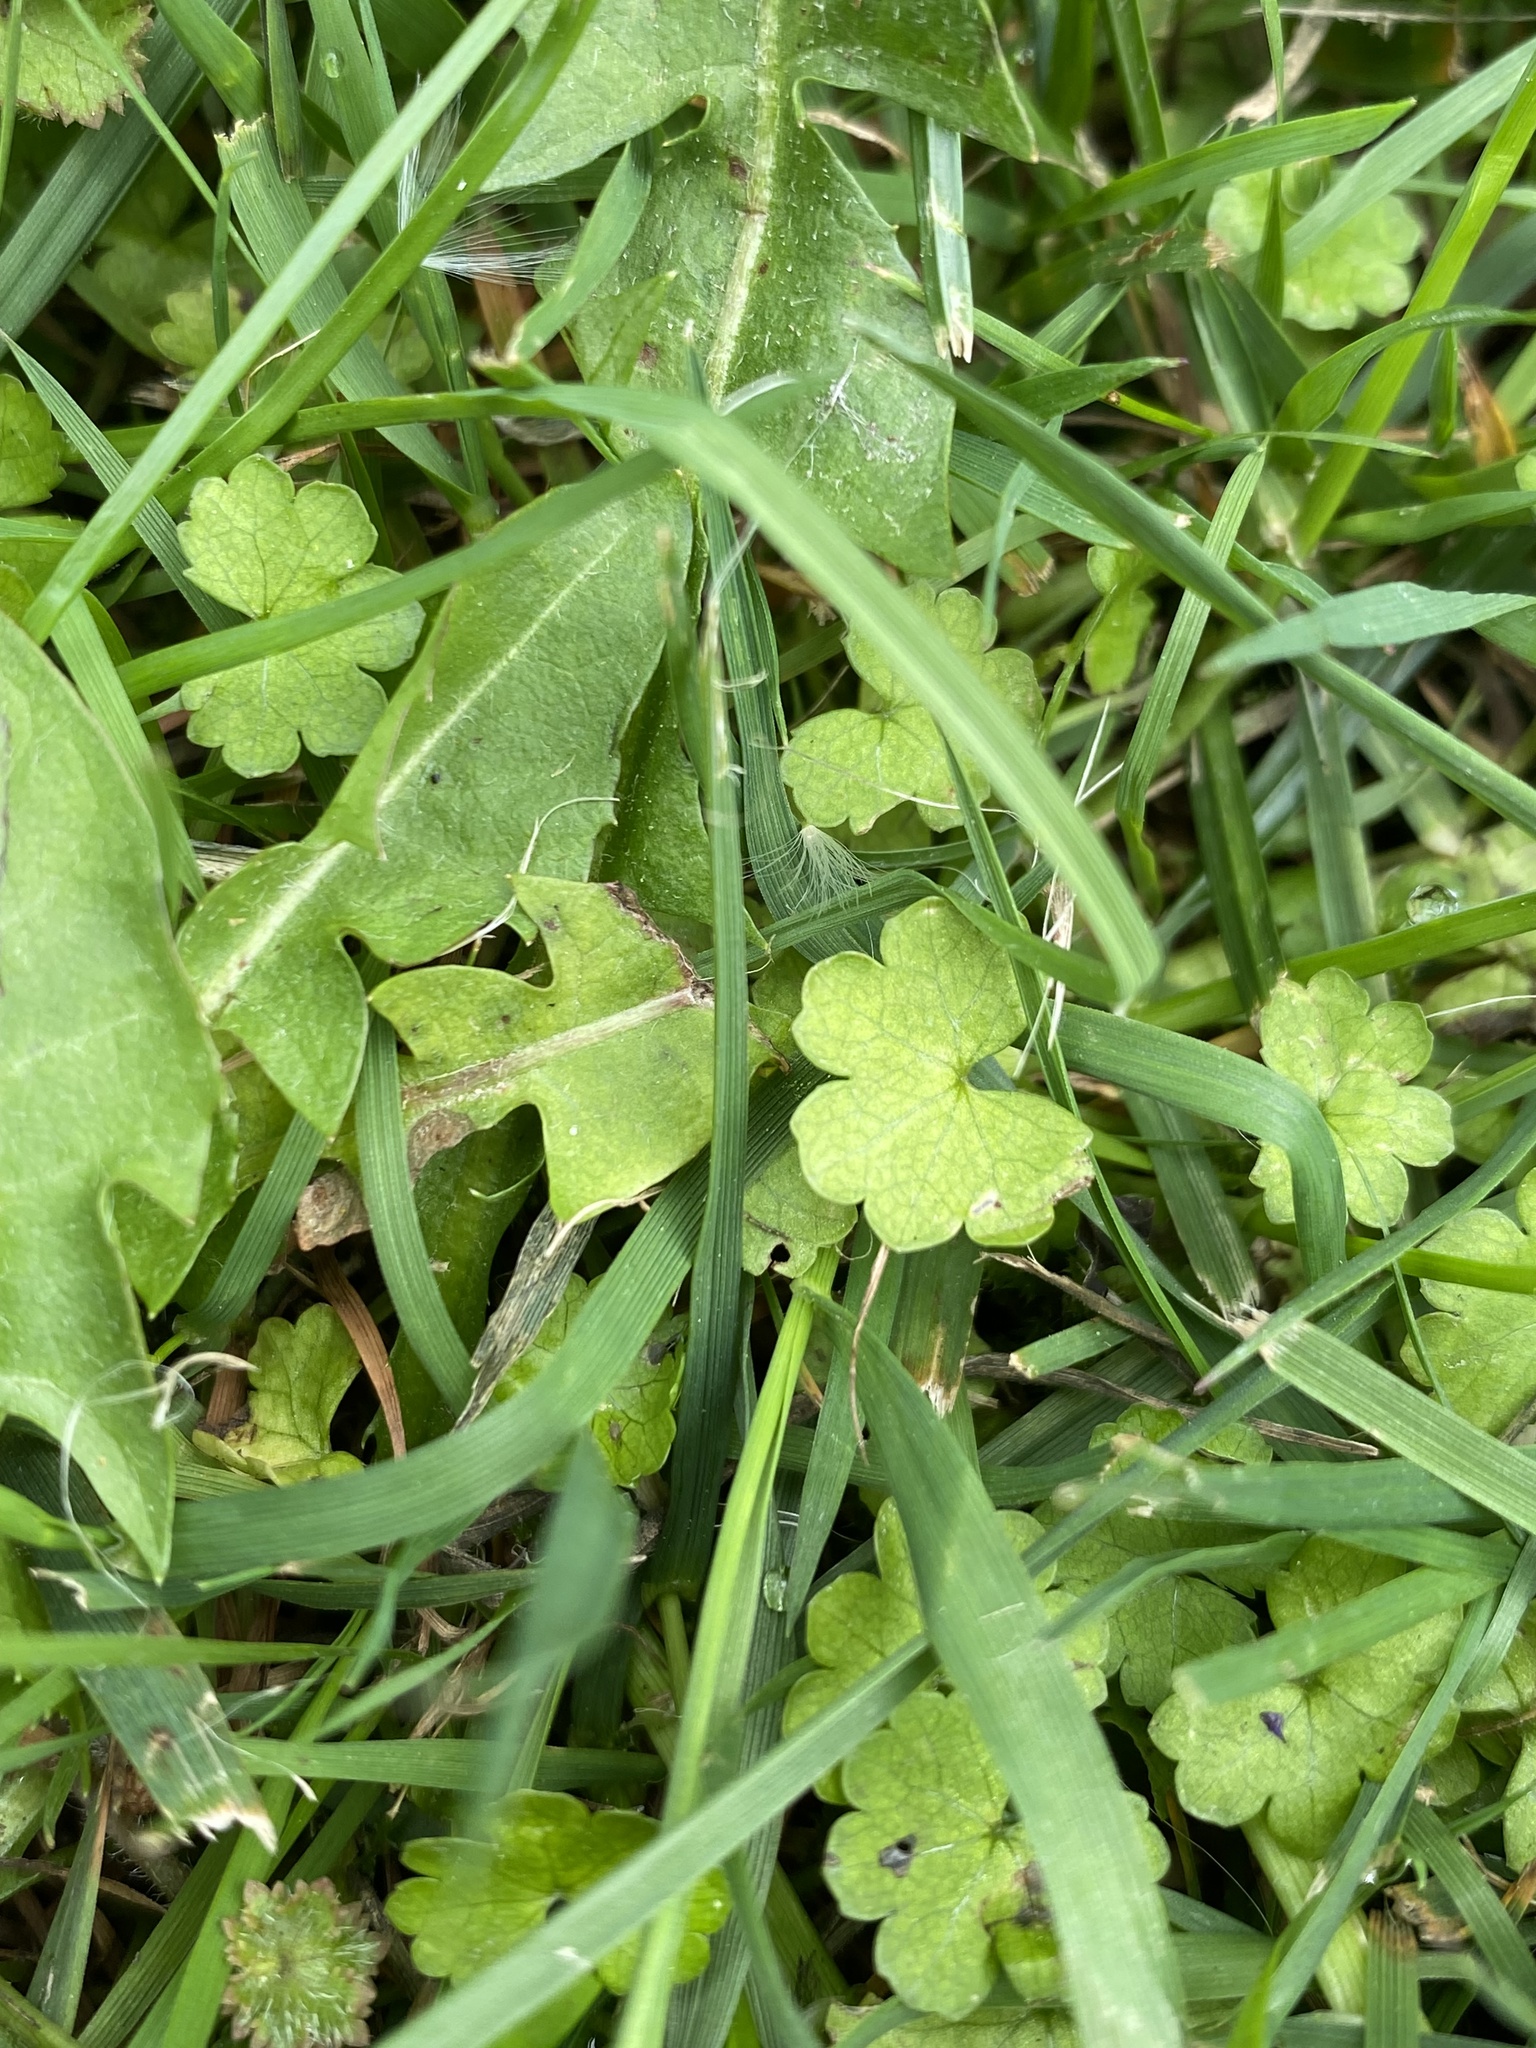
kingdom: Plantae
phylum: Tracheophyta
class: Magnoliopsida
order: Apiales
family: Araliaceae
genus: Hydrocotyle
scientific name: Hydrocotyle heteromeria
